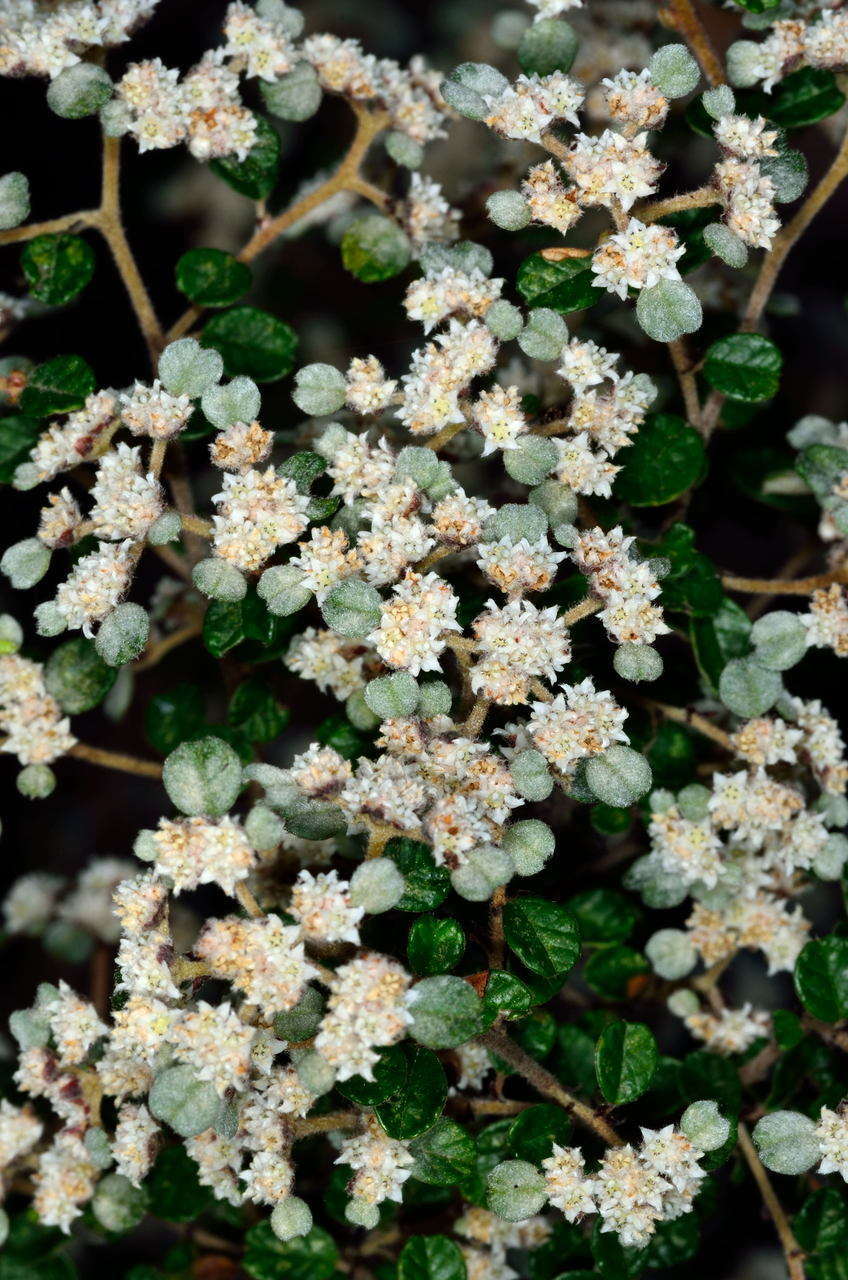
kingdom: Plantae
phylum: Tracheophyta
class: Magnoliopsida
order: Rosales
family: Rhamnaceae
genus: Spyridium
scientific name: Spyridium parvifolium
